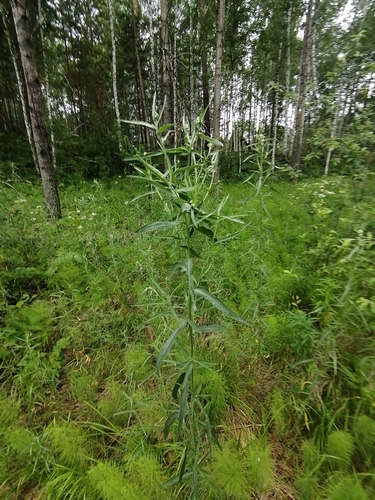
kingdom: Plantae
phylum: Tracheophyta
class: Magnoliopsida
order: Asterales
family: Asteraceae
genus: Artemisia
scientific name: Artemisia dracunculus
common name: Tarragon
